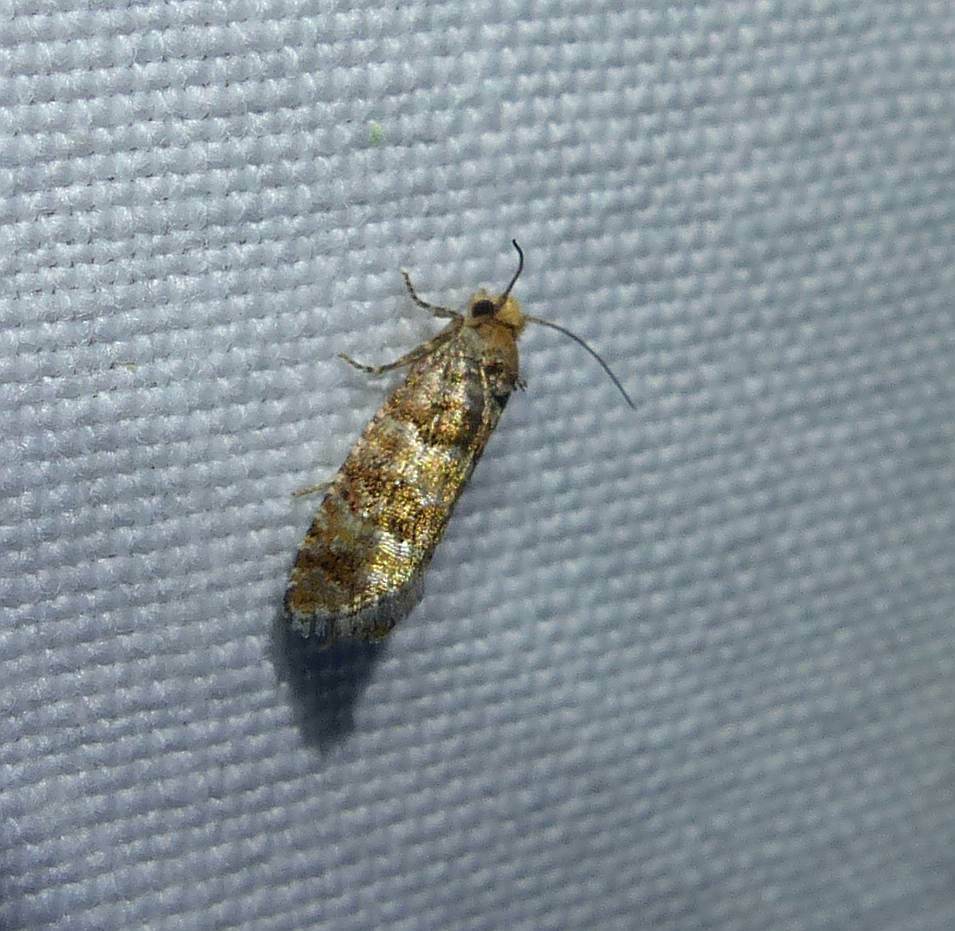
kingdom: Animalia
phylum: Arthropoda
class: Insecta
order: Lepidoptera
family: Tortricidae
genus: Eucopina
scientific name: Eucopina tocullionana
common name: White pinecone borer moth
